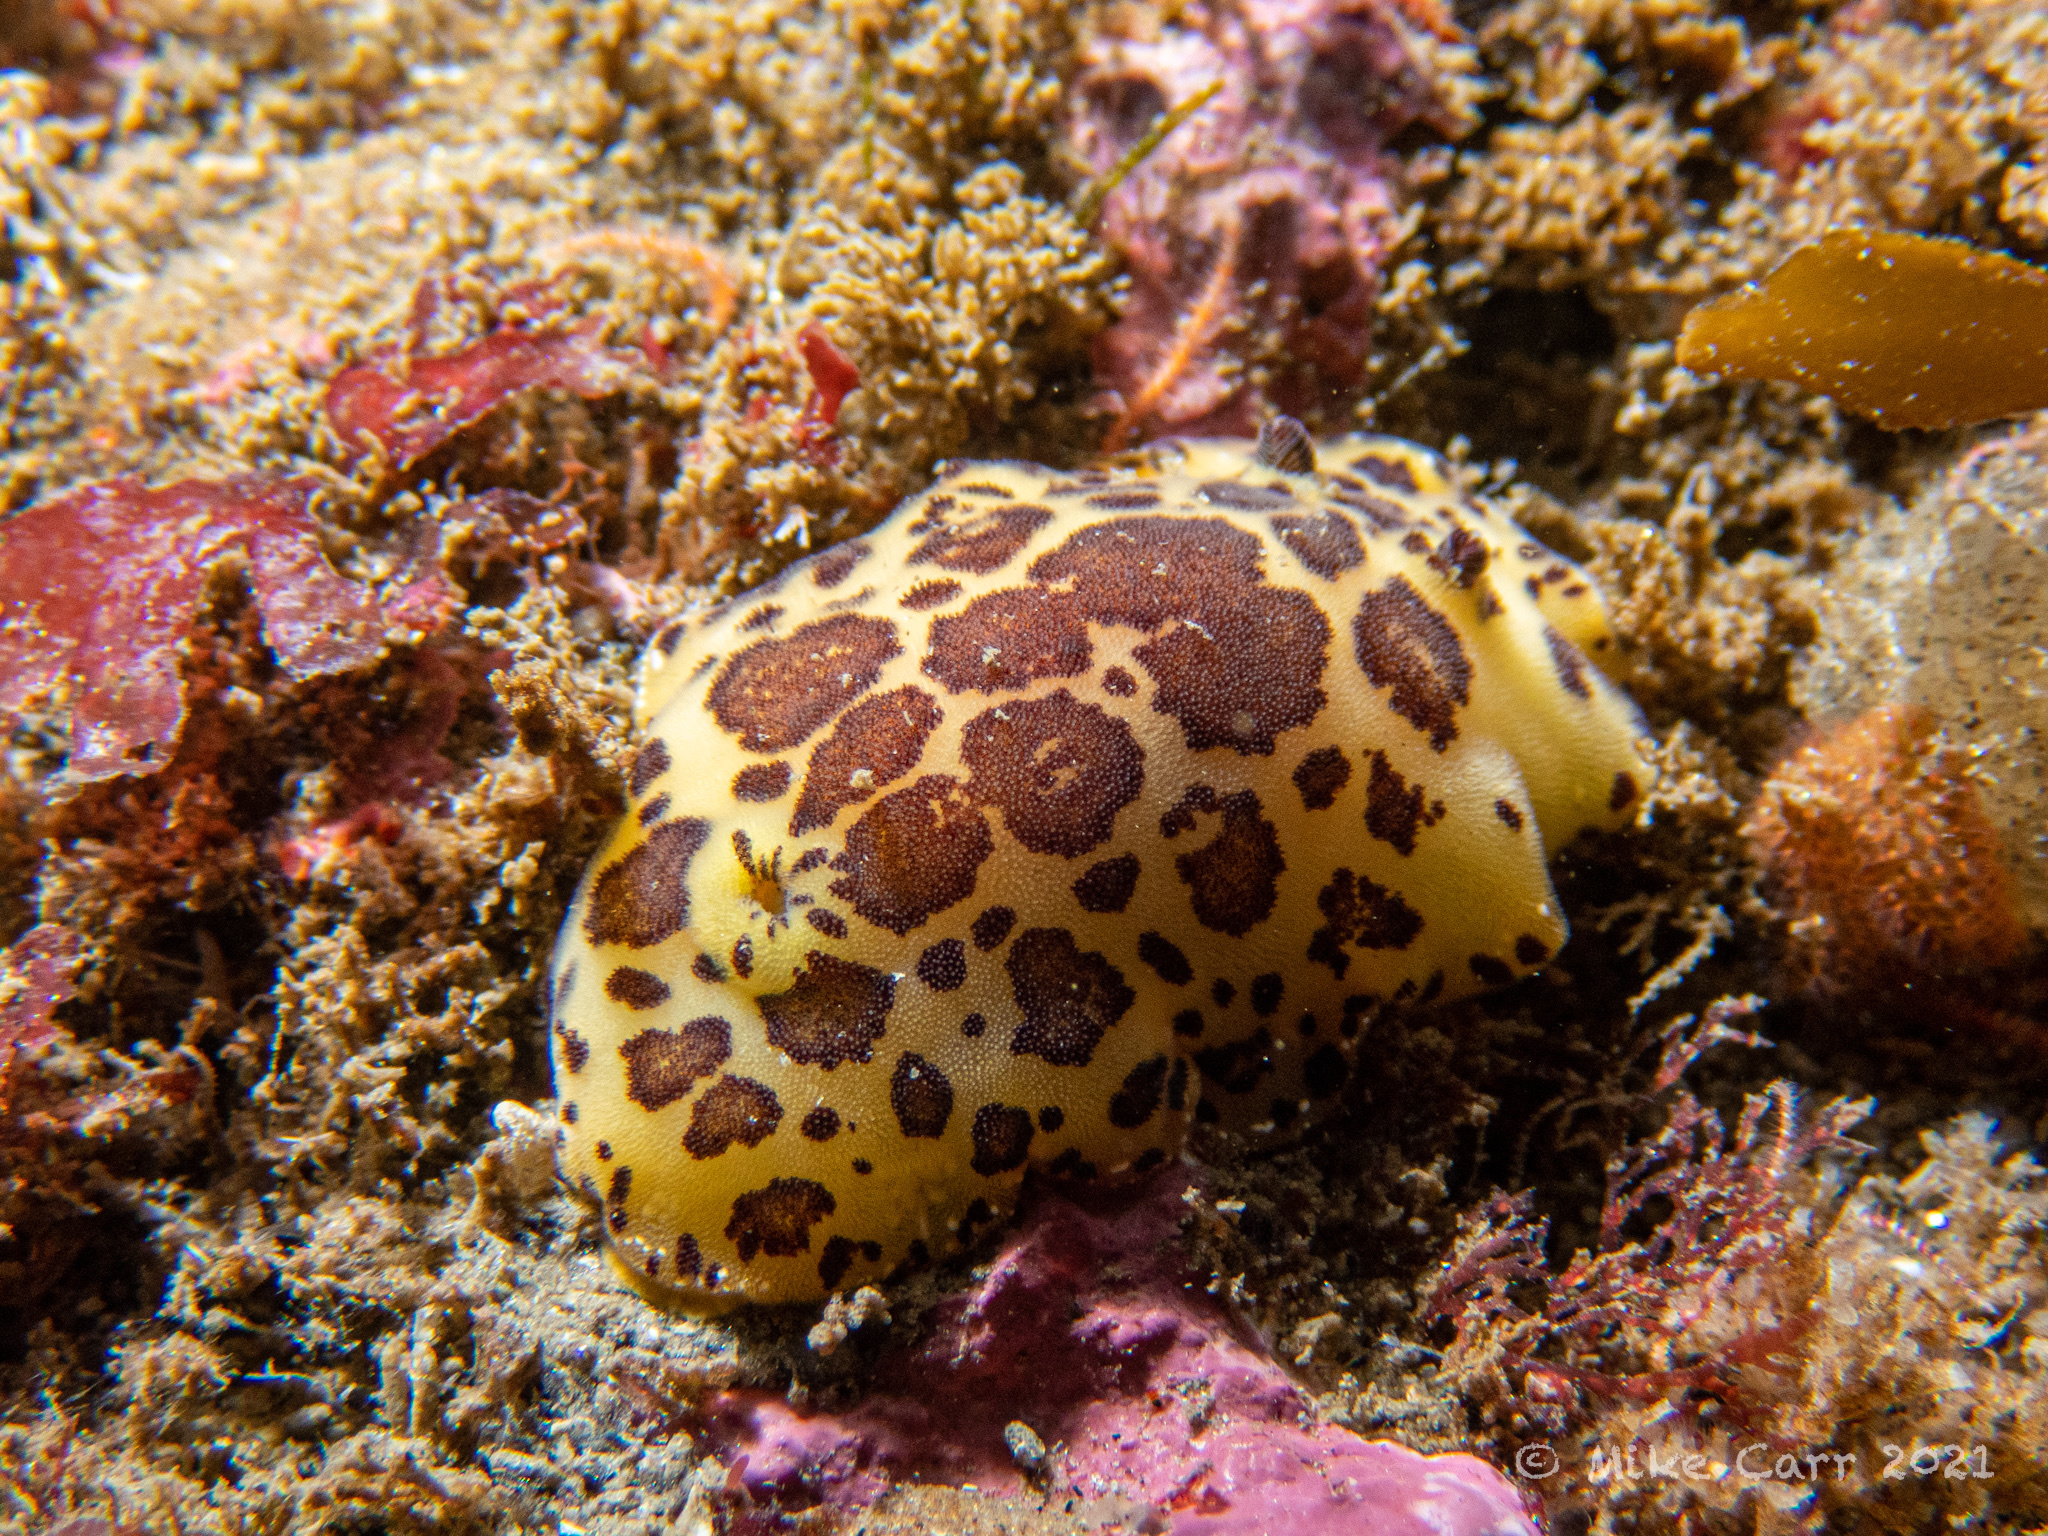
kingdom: Animalia
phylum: Mollusca
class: Gastropoda
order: Nudibranchia
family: Discodorididae
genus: Jorunna
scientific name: Jorunna pardus
